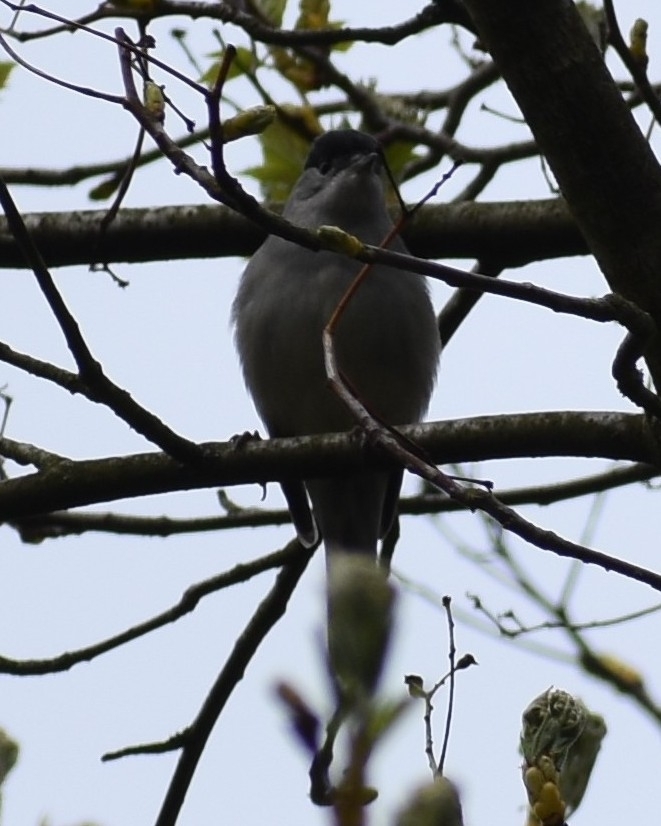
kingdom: Animalia
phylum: Chordata
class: Aves
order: Passeriformes
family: Sylviidae
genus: Sylvia
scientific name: Sylvia atricapilla
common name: Eurasian blackcap
